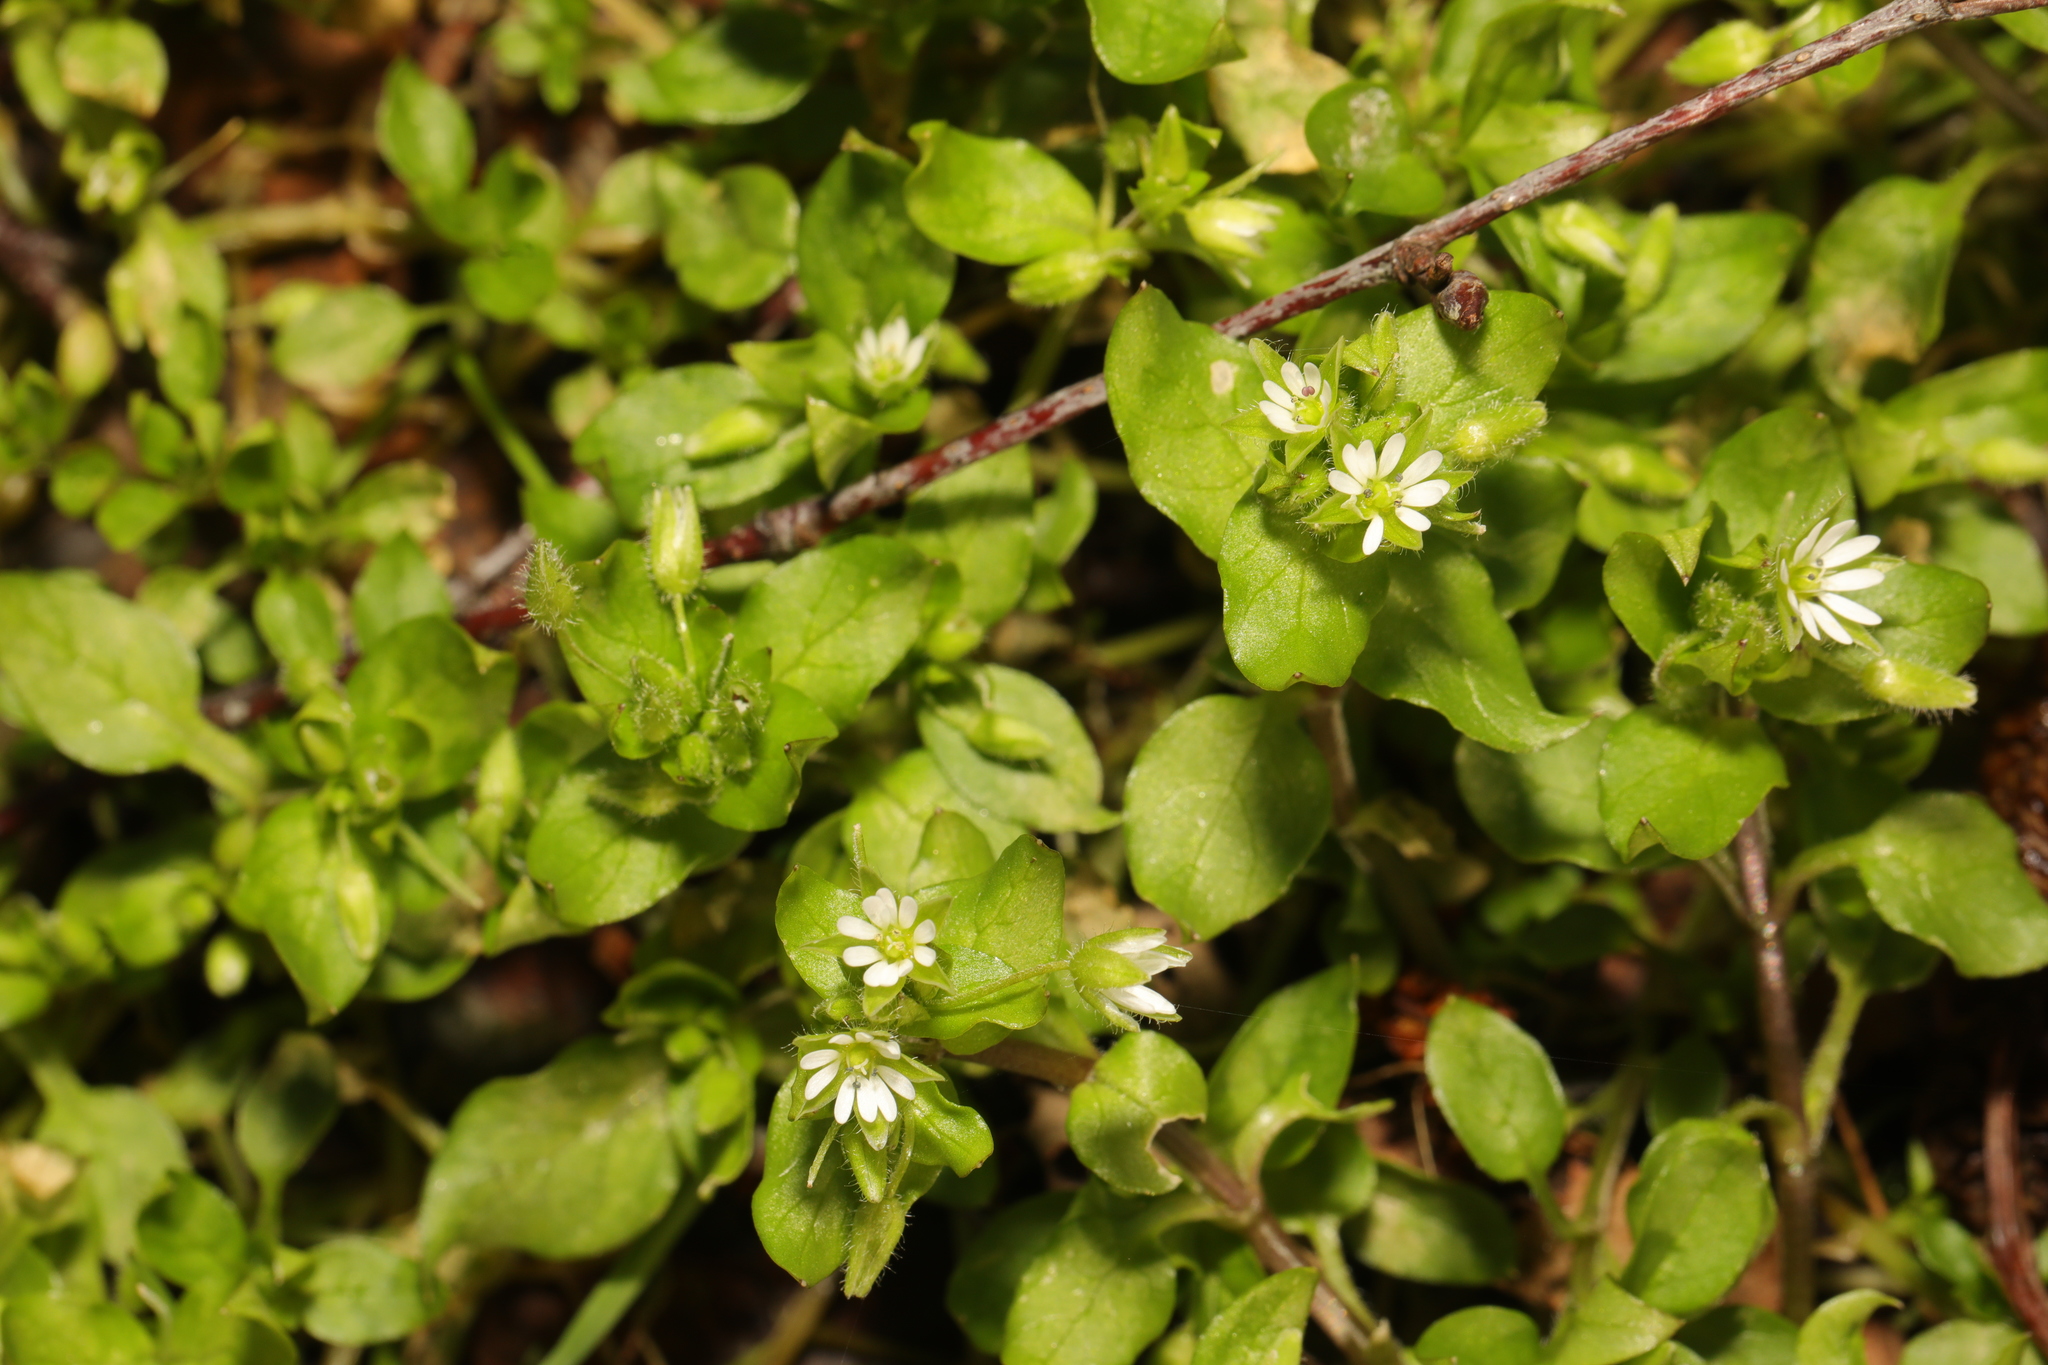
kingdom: Plantae
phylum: Tracheophyta
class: Magnoliopsida
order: Caryophyllales
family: Caryophyllaceae
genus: Stellaria
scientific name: Stellaria media
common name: Common chickweed
